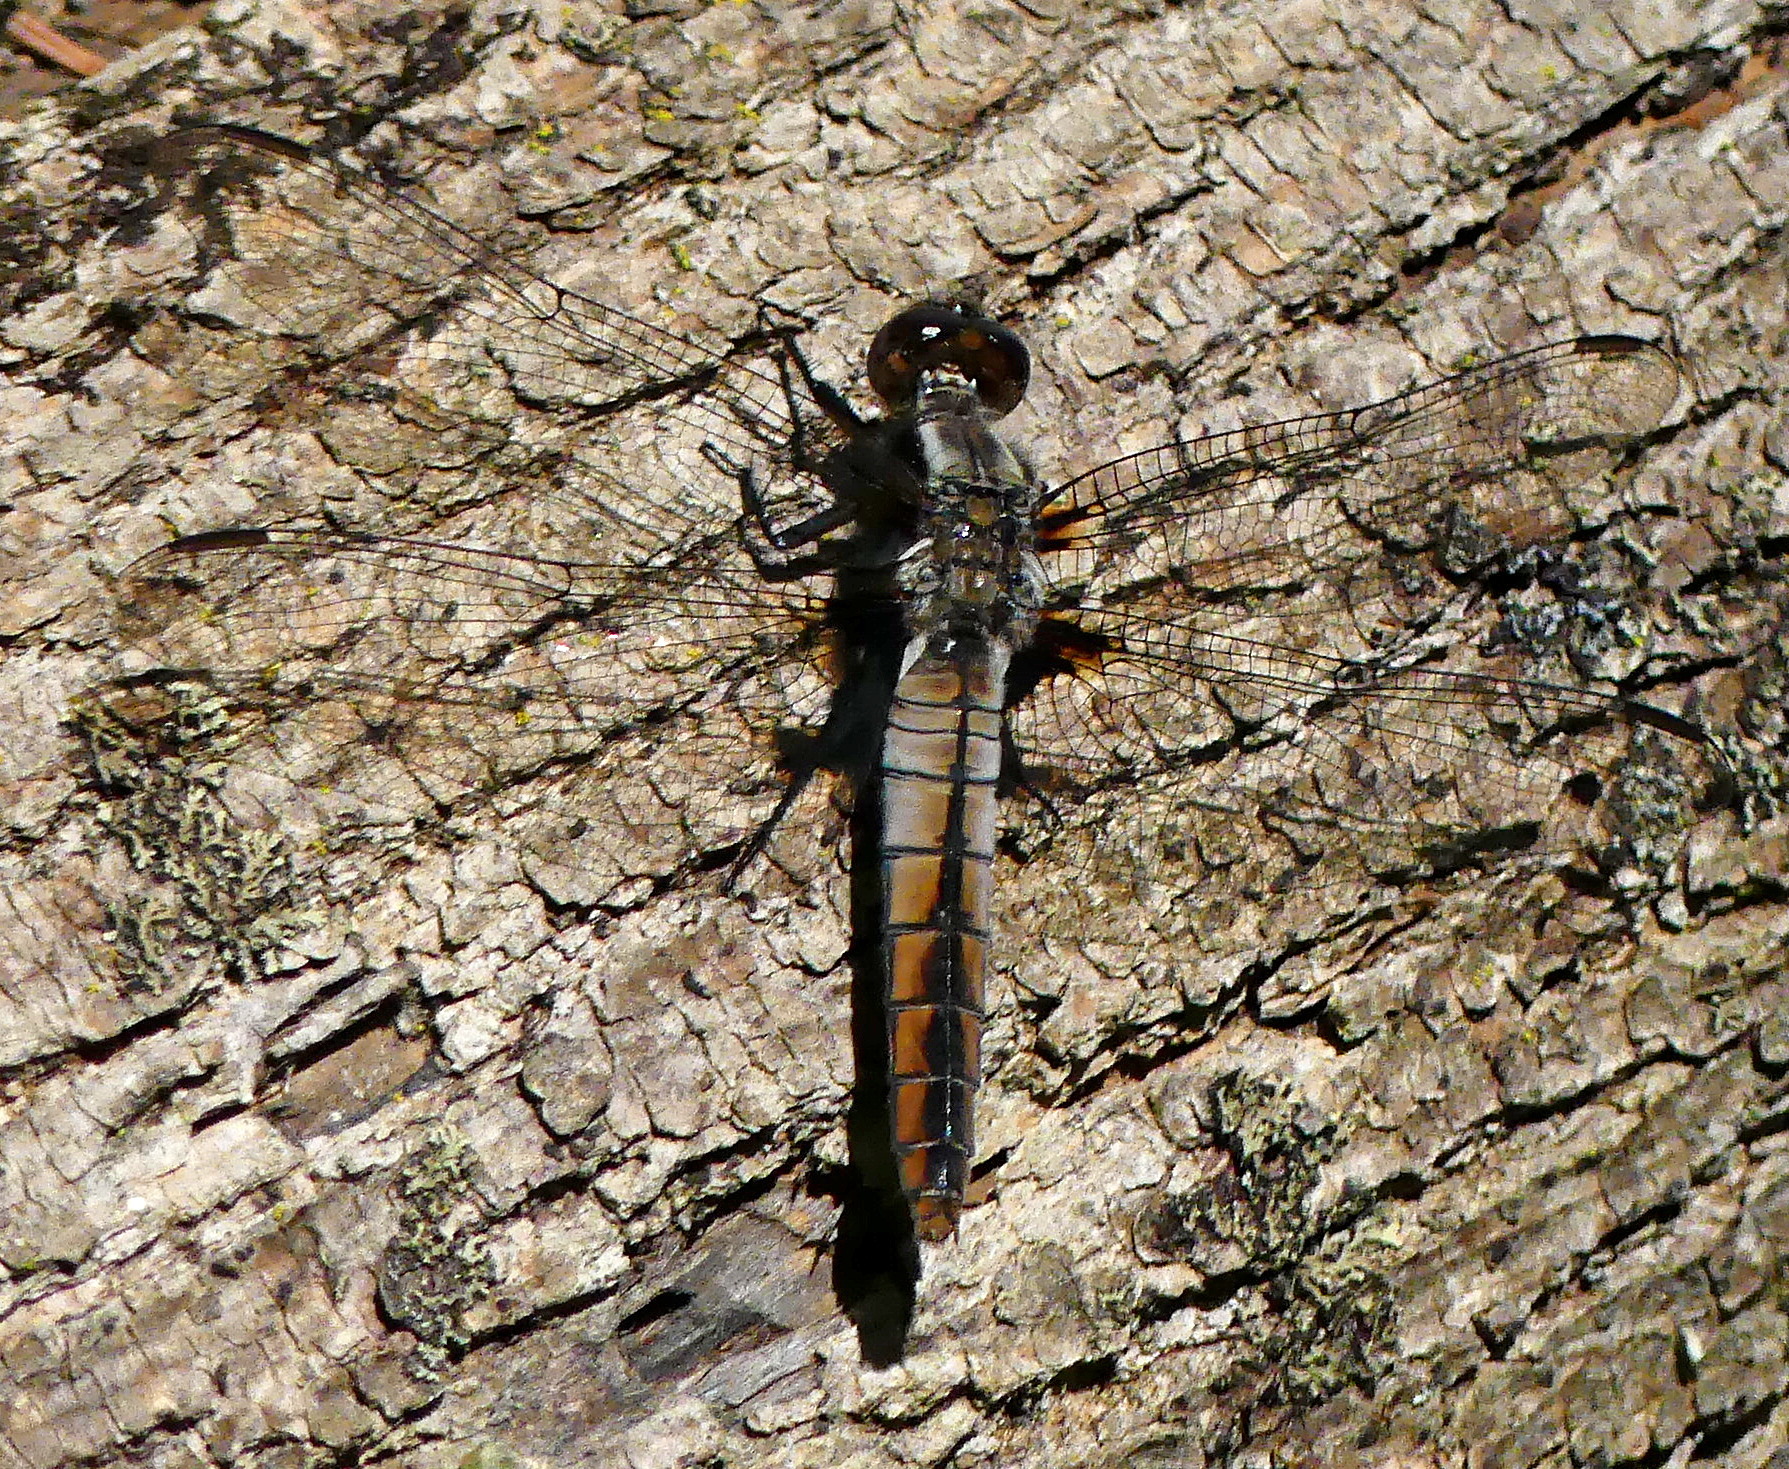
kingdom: Animalia
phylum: Arthropoda
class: Insecta
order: Odonata
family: Libellulidae
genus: Ladona
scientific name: Ladona julia
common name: Chalk-fronted corporal
